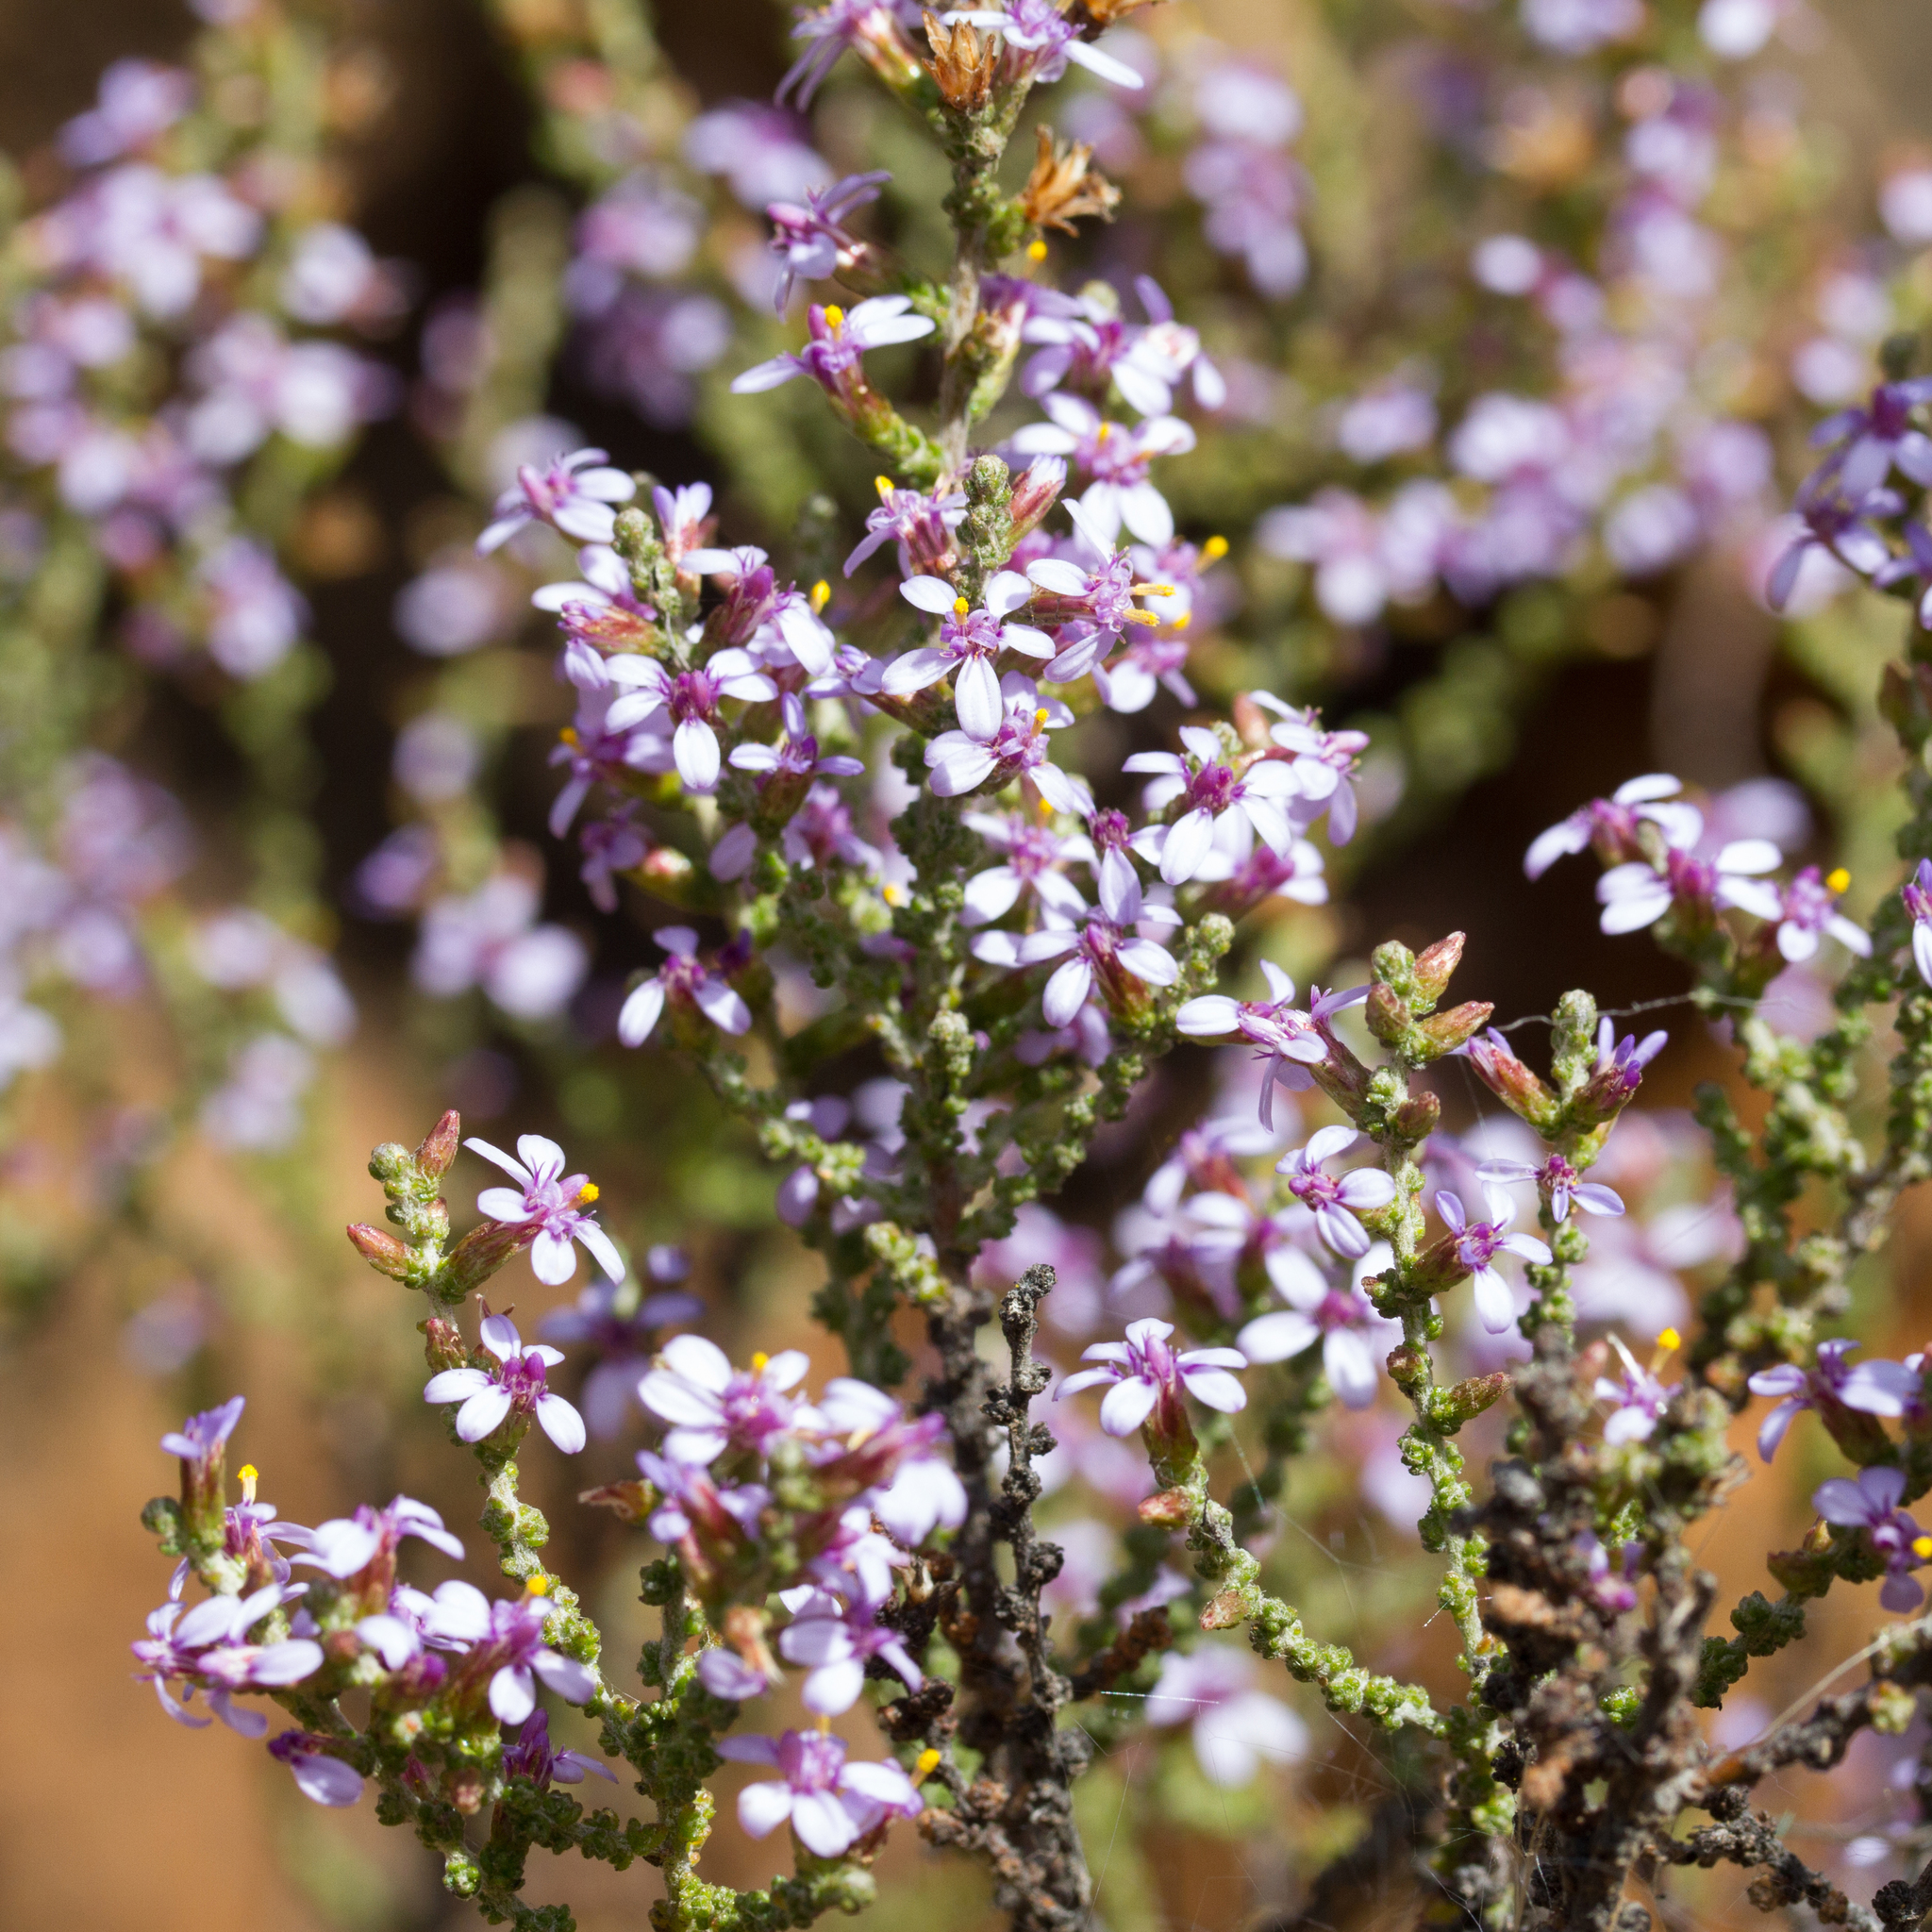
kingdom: Plantae
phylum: Tracheophyta
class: Magnoliopsida
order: Asterales
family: Asteraceae
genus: Olearia
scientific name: Olearia lanuginosa
